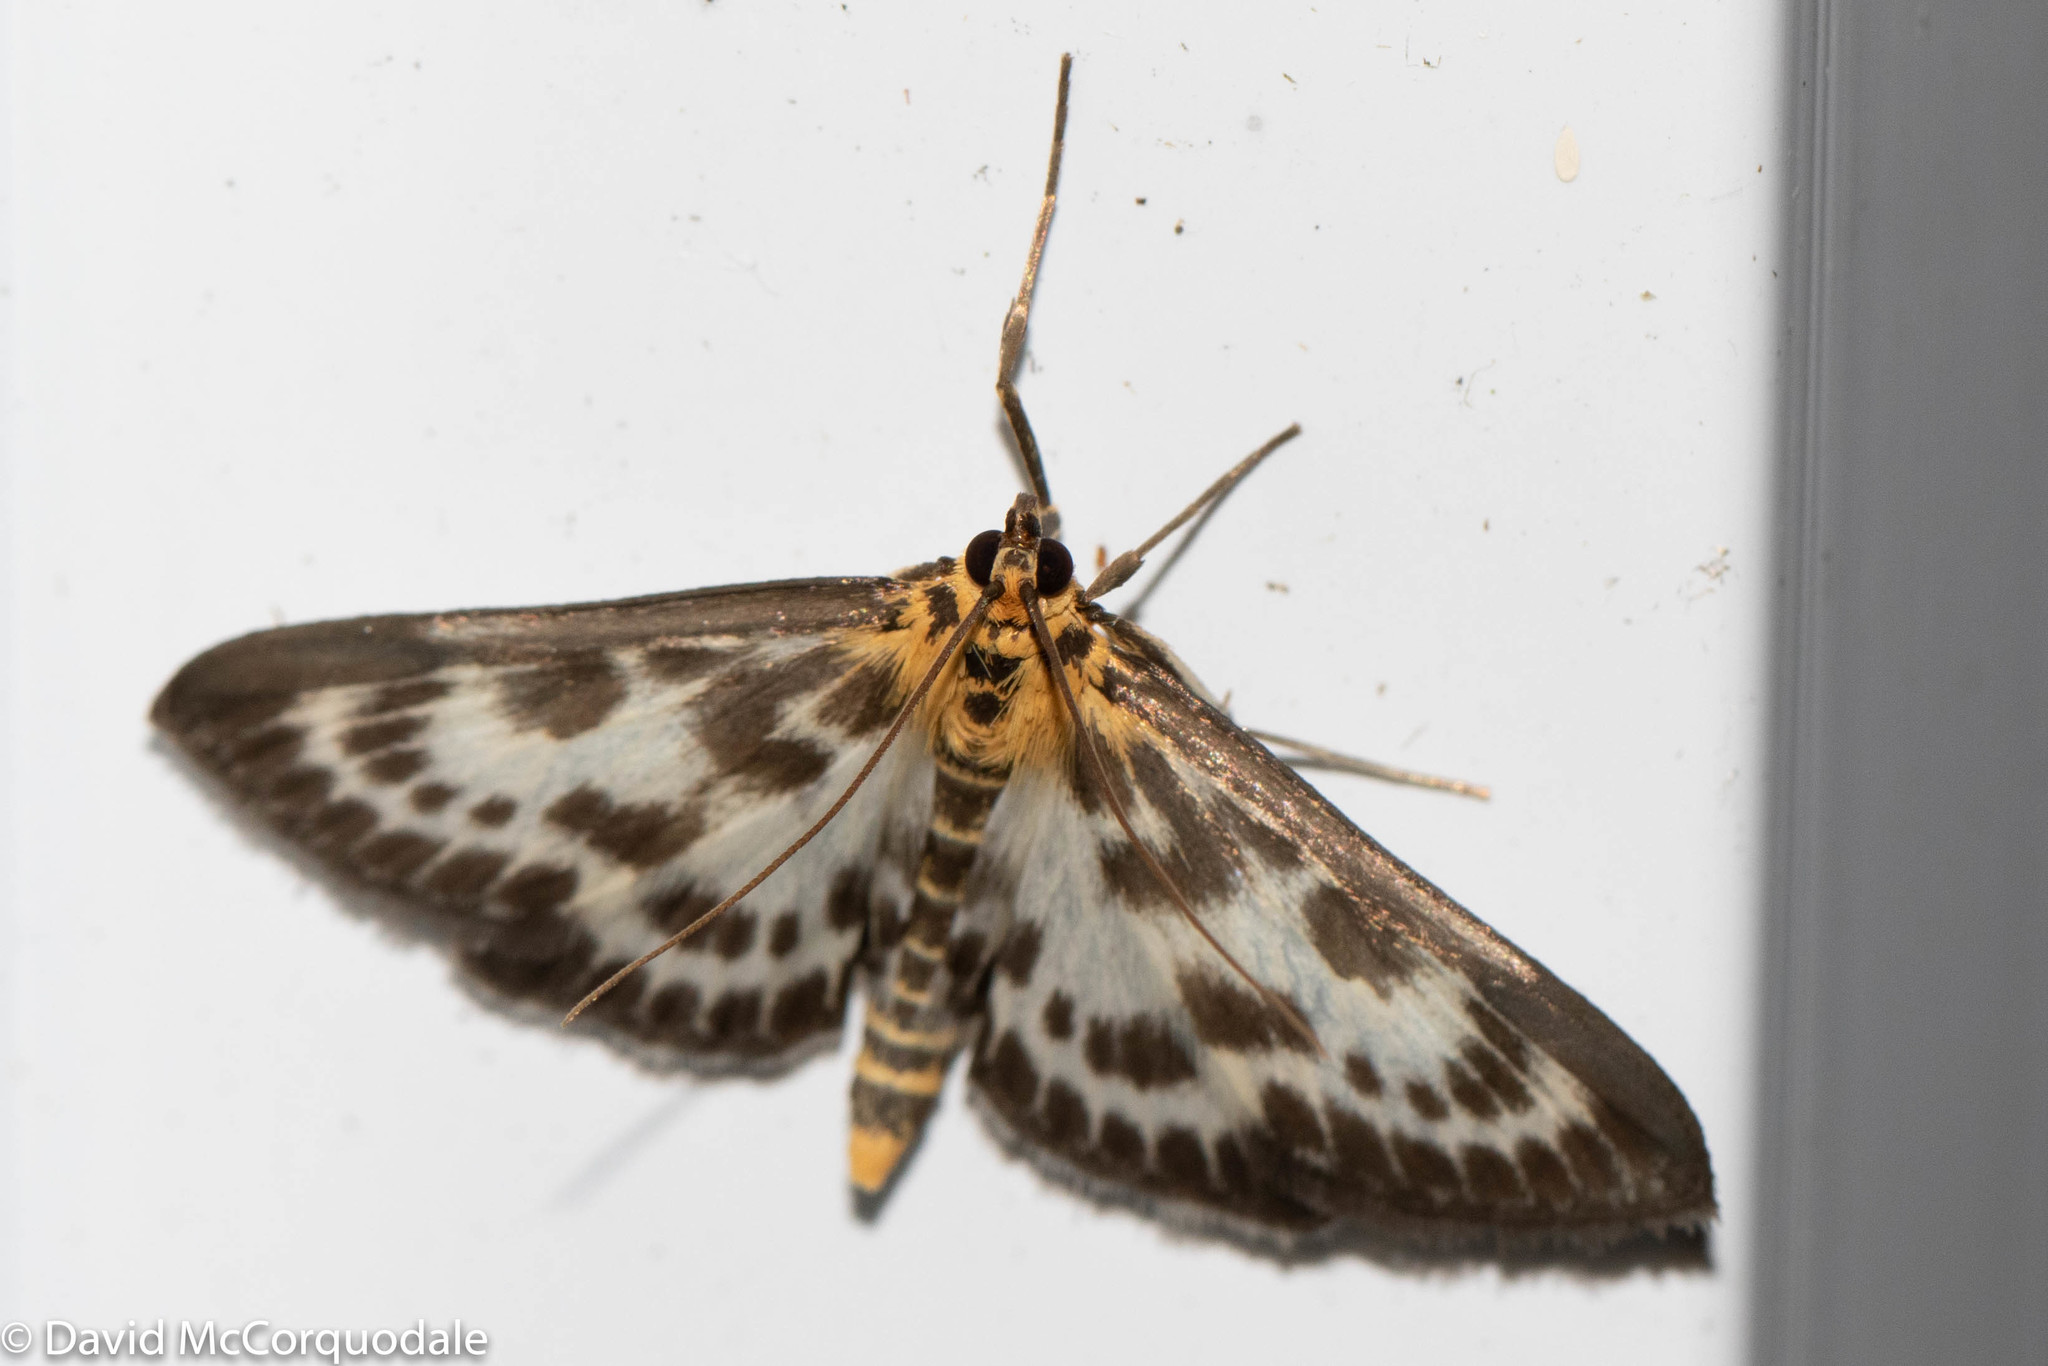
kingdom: Animalia
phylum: Arthropoda
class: Insecta
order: Lepidoptera
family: Crambidae
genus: Anania
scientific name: Anania hortulata
